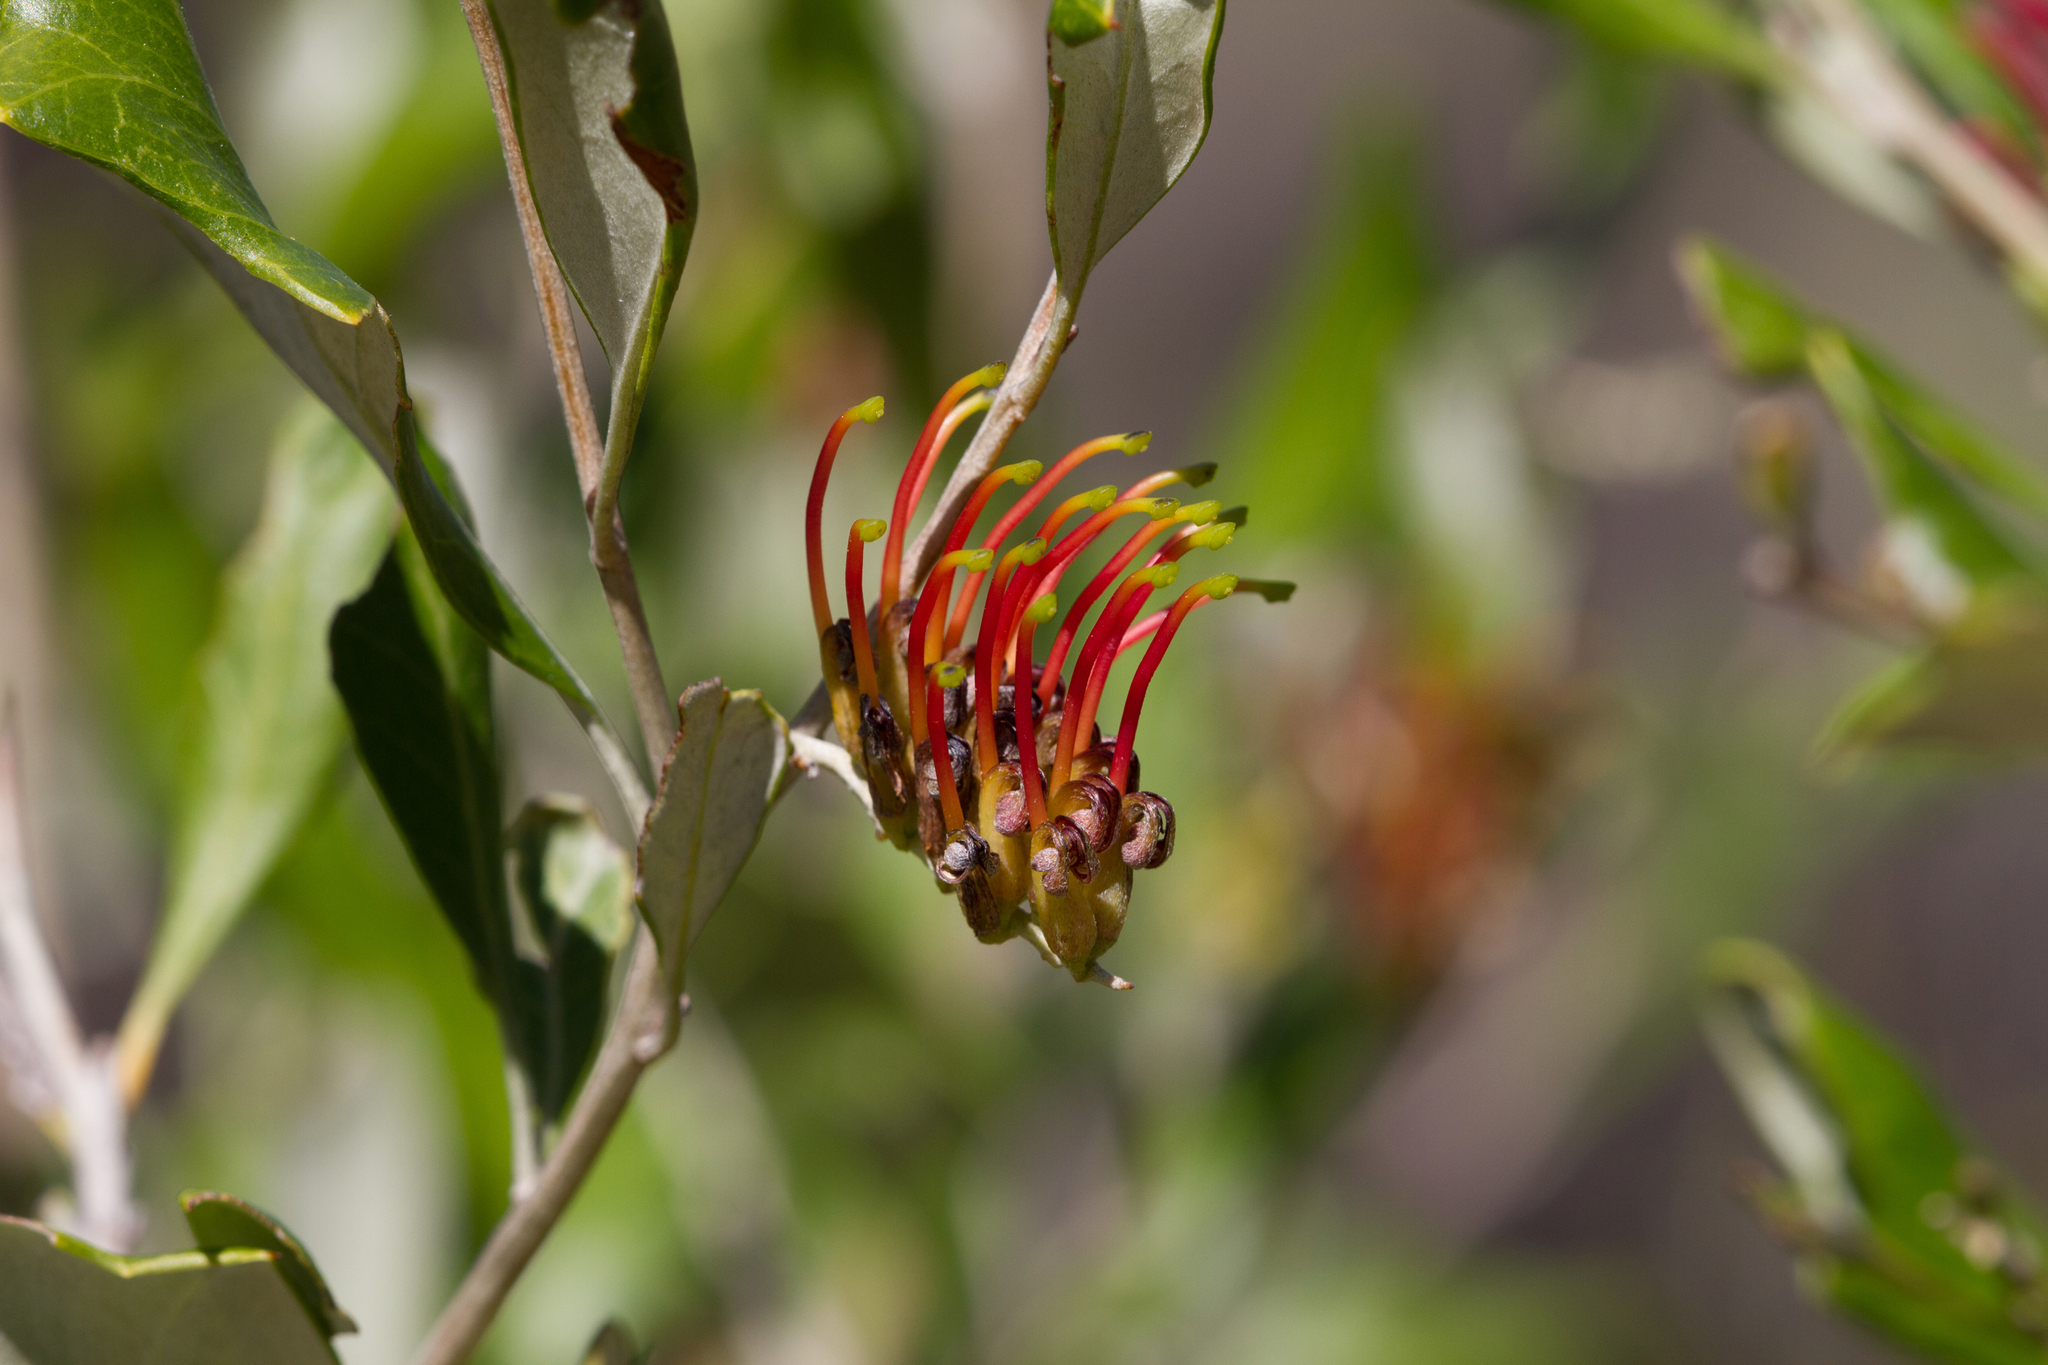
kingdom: Plantae
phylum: Tracheophyta
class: Magnoliopsida
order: Proteales
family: Proteaceae
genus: Grevillea
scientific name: Grevillea ilicifolia
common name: Holly grevillea
